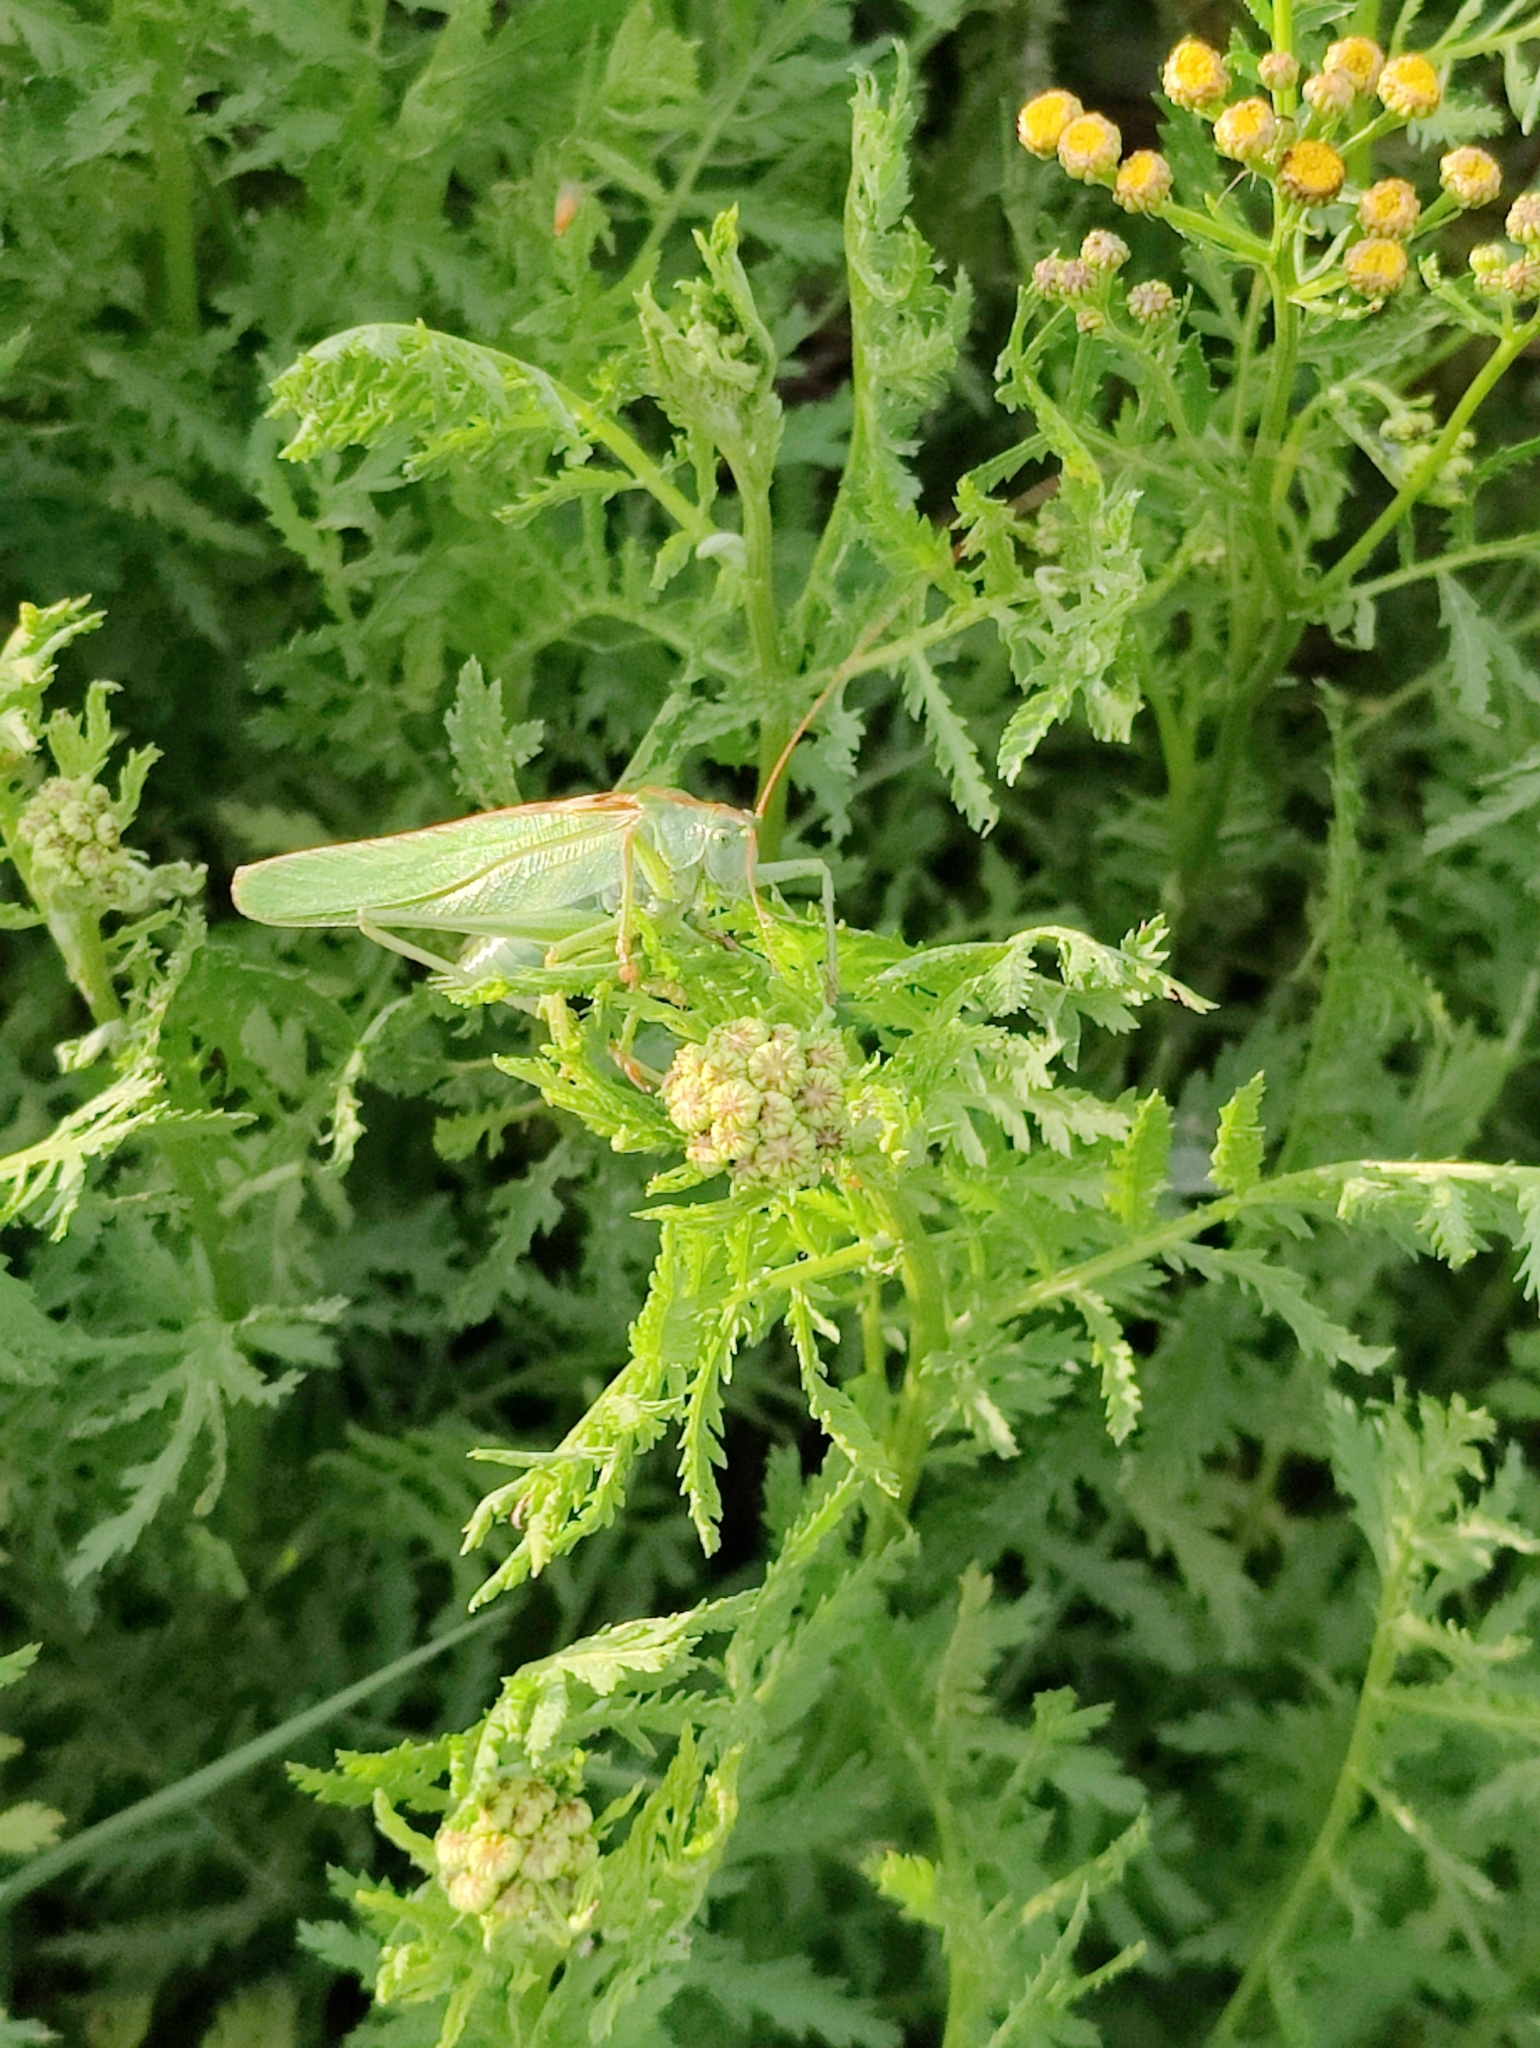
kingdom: Animalia
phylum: Arthropoda
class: Insecta
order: Orthoptera
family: Tettigoniidae
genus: Tettigonia
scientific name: Tettigonia viridissima
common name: Great green bush-cricket
